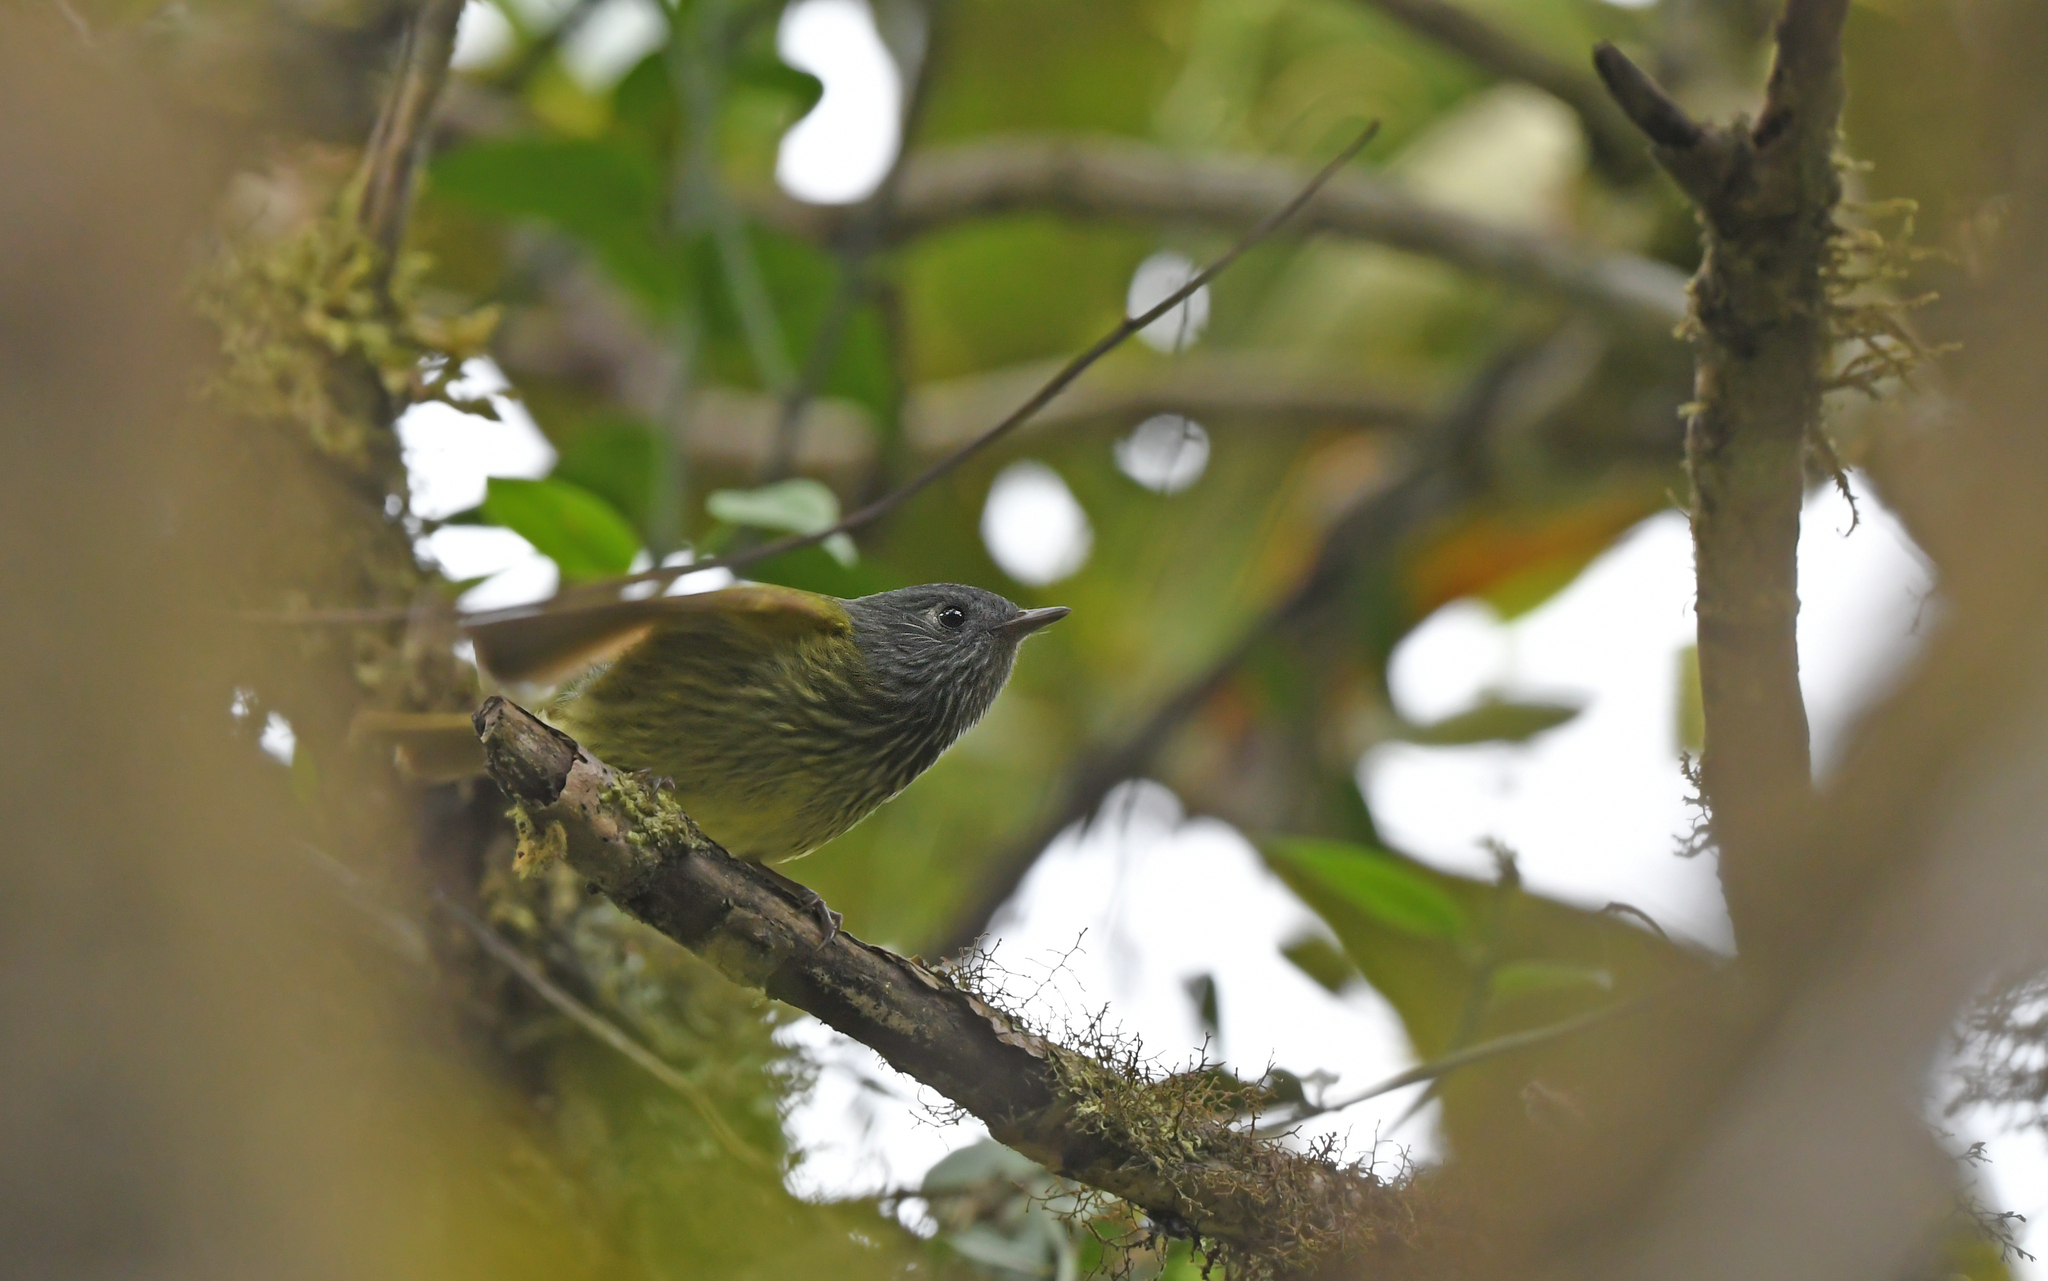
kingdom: Animalia
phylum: Chordata
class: Aves
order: Passeriformes
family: Tyrannidae
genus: Mionectes
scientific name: Mionectes striaticollis
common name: Streak-necked flycatcher
